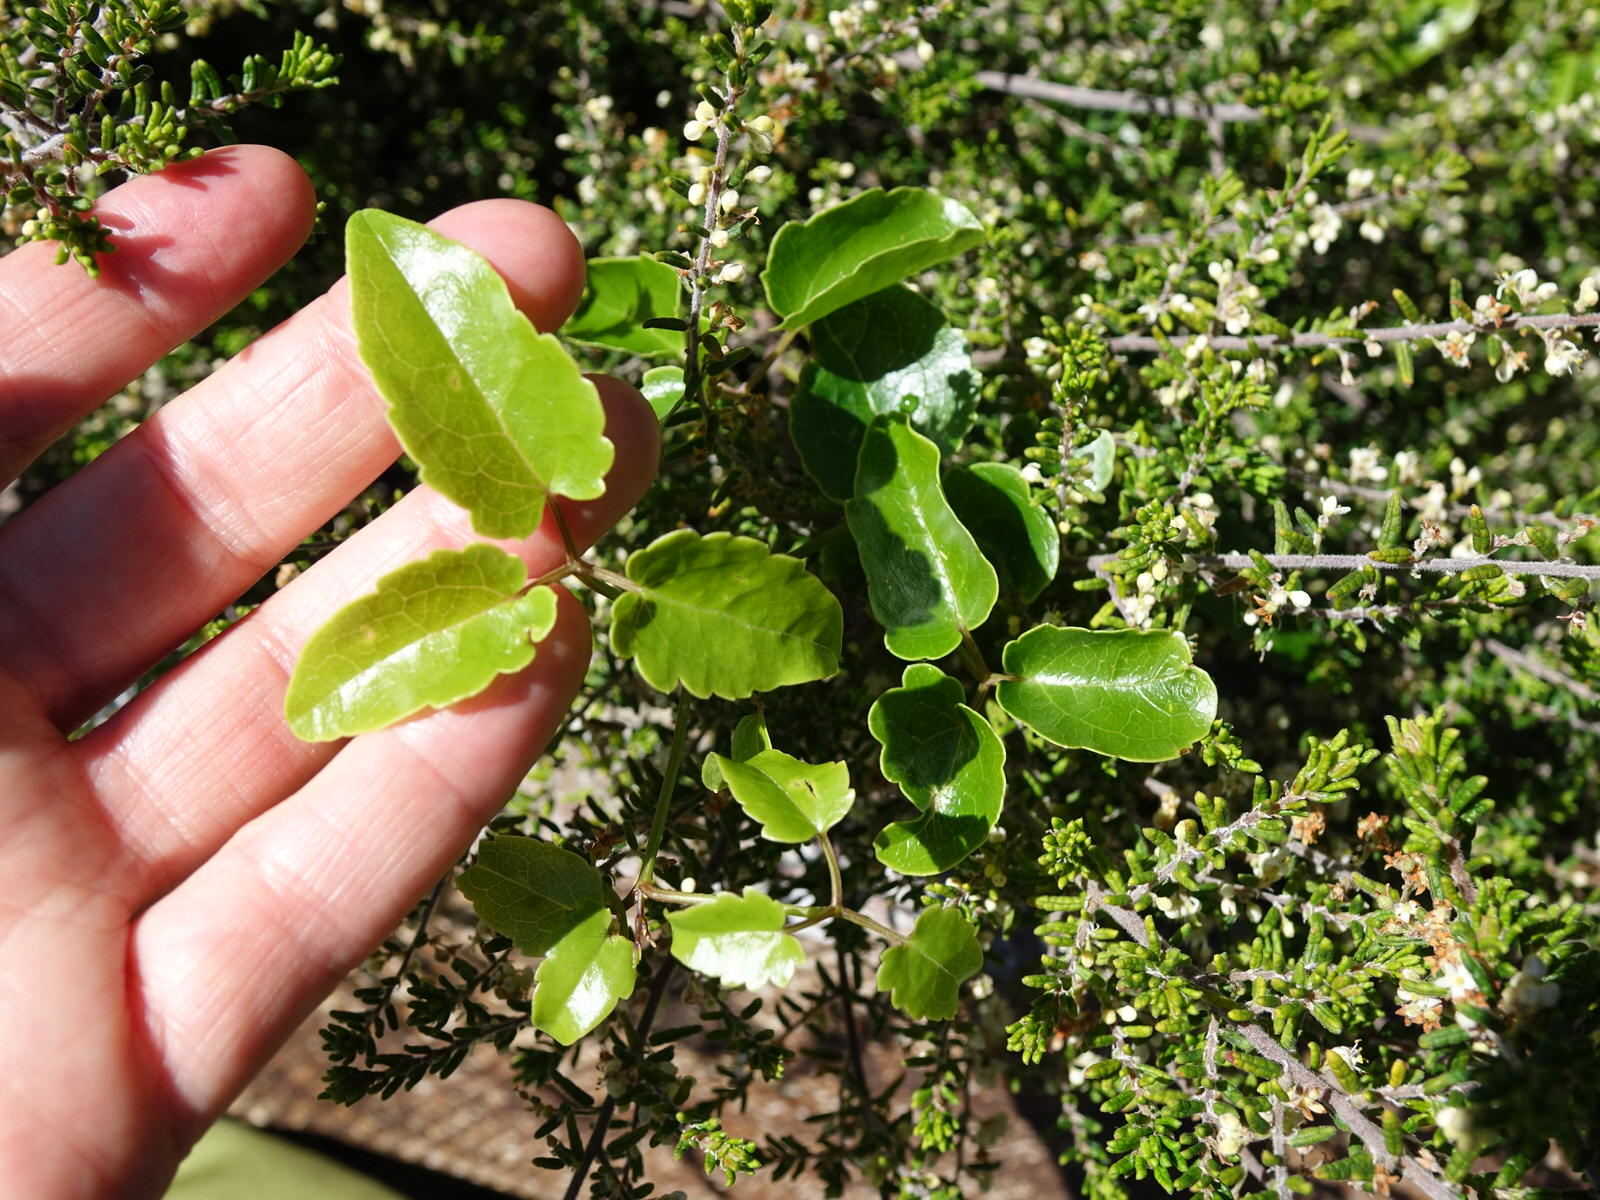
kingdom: Plantae
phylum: Tracheophyta
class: Magnoliopsida
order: Ranunculales
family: Ranunculaceae
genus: Clematis
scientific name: Clematis forsteri
